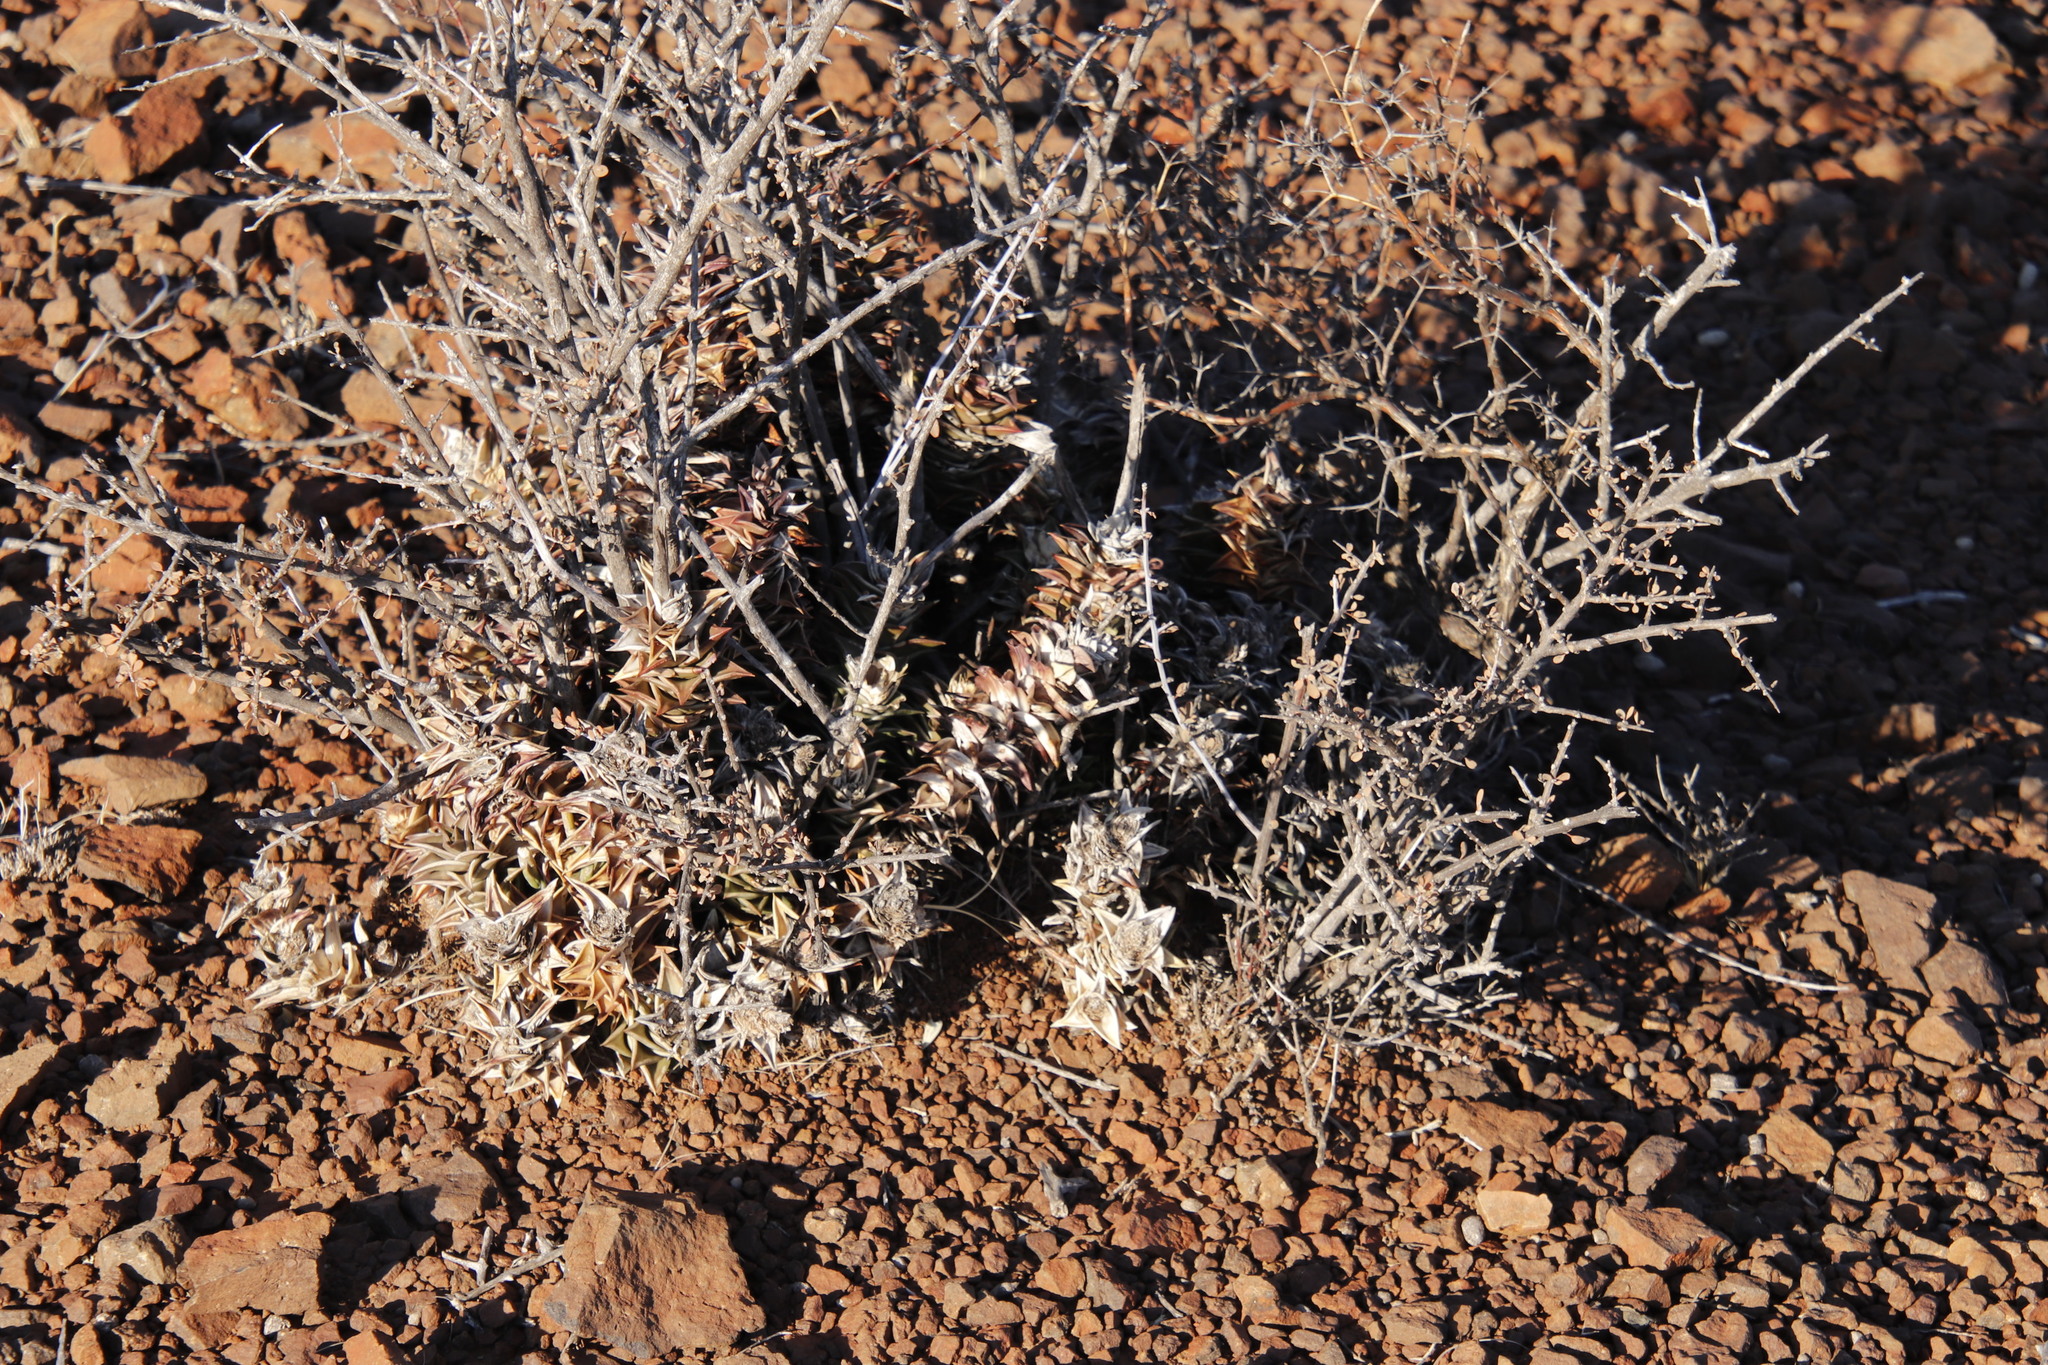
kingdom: Plantae
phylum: Tracheophyta
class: Liliopsida
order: Asparagales
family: Asphodelaceae
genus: Astroloba
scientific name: Astroloba robusta
